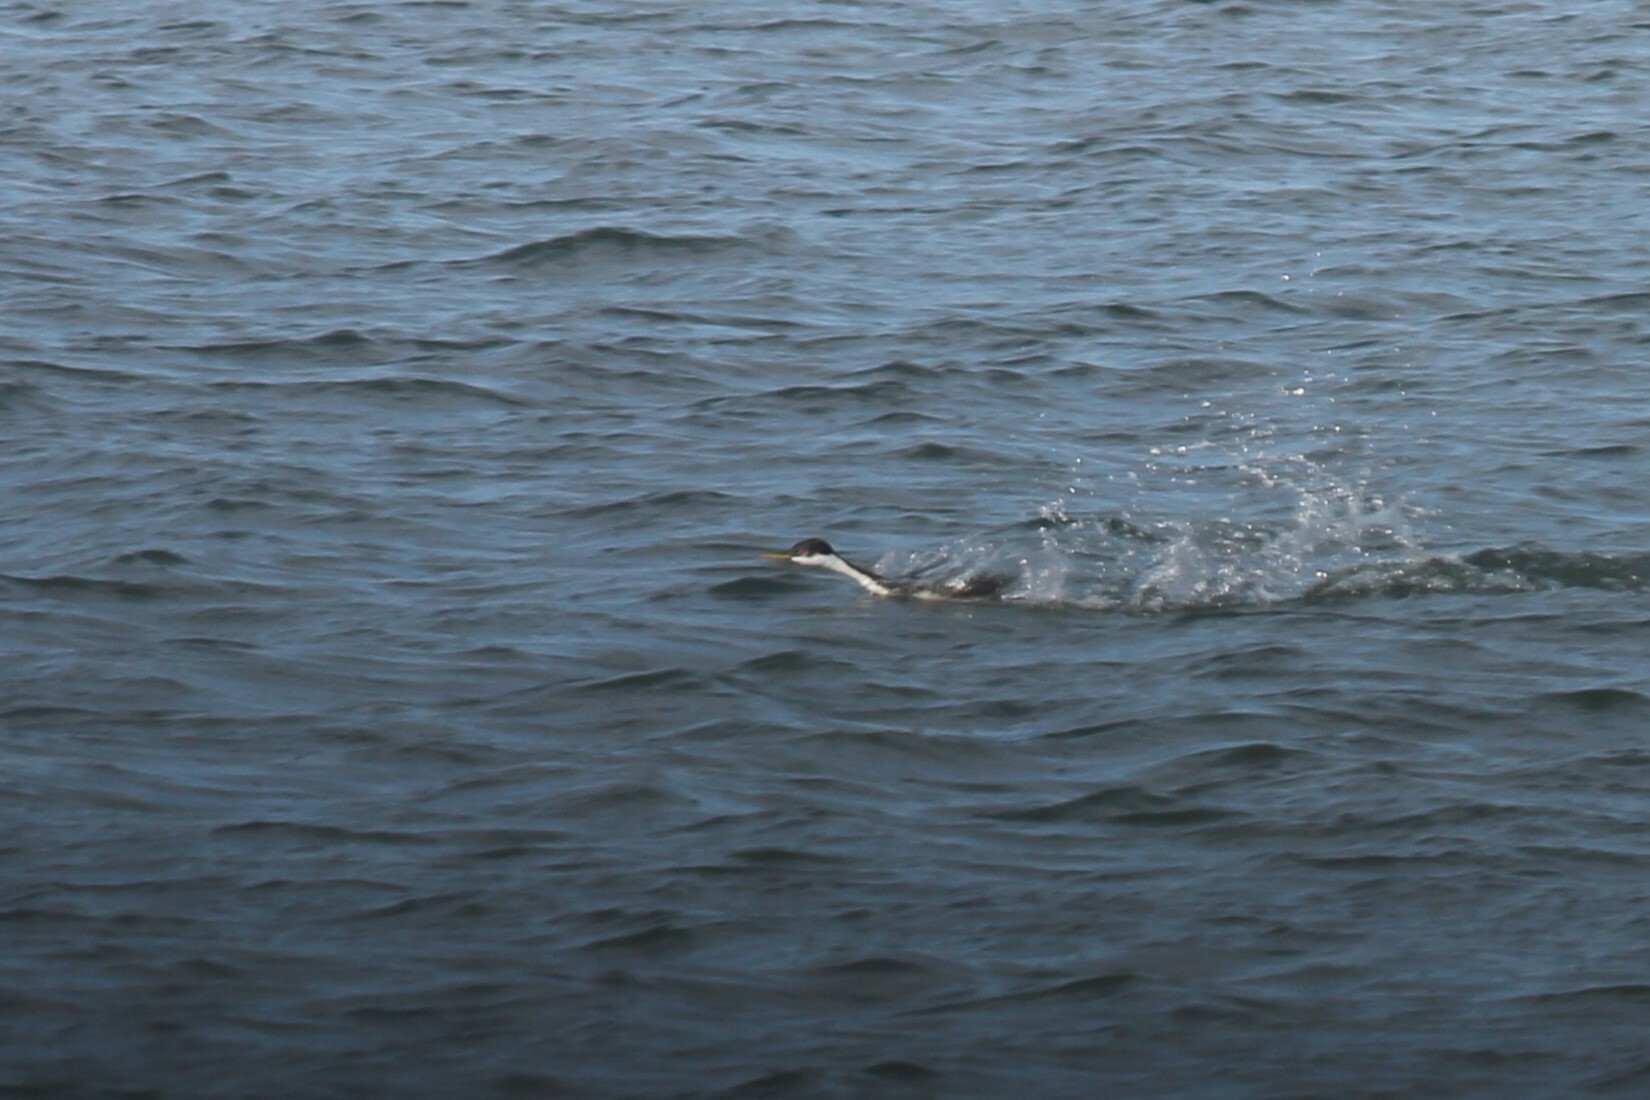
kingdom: Animalia
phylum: Chordata
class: Aves
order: Podicipediformes
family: Podicipedidae
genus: Aechmophorus
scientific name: Aechmophorus occidentalis
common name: Western grebe
